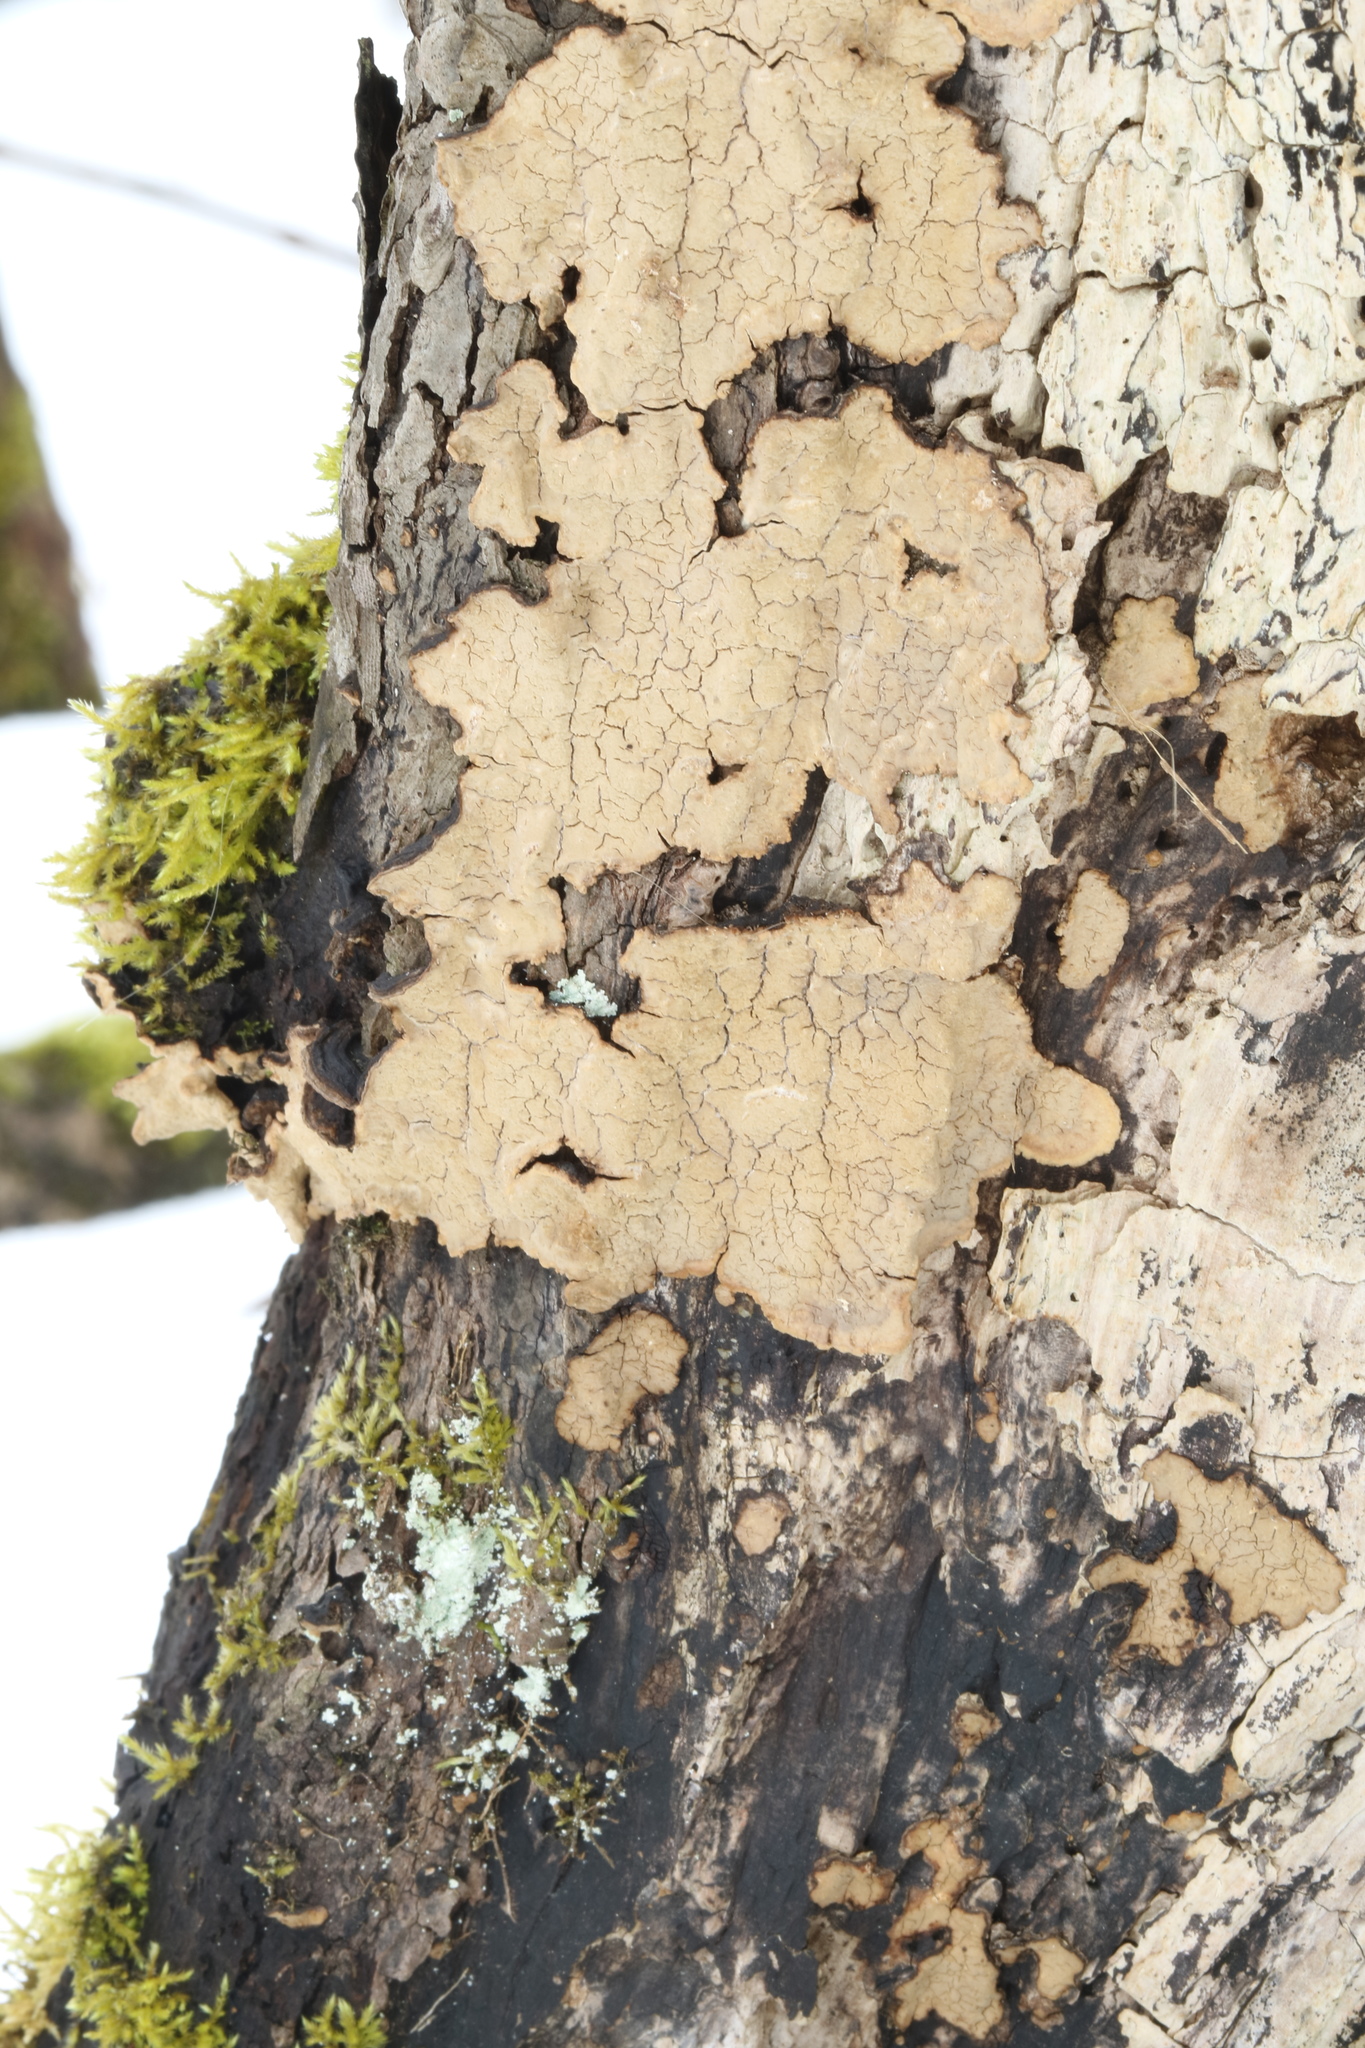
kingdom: Fungi
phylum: Basidiomycota
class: Agaricomycetes
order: Agaricales
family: Cystostereaceae
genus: Cystostereum
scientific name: Cystostereum murrayi
